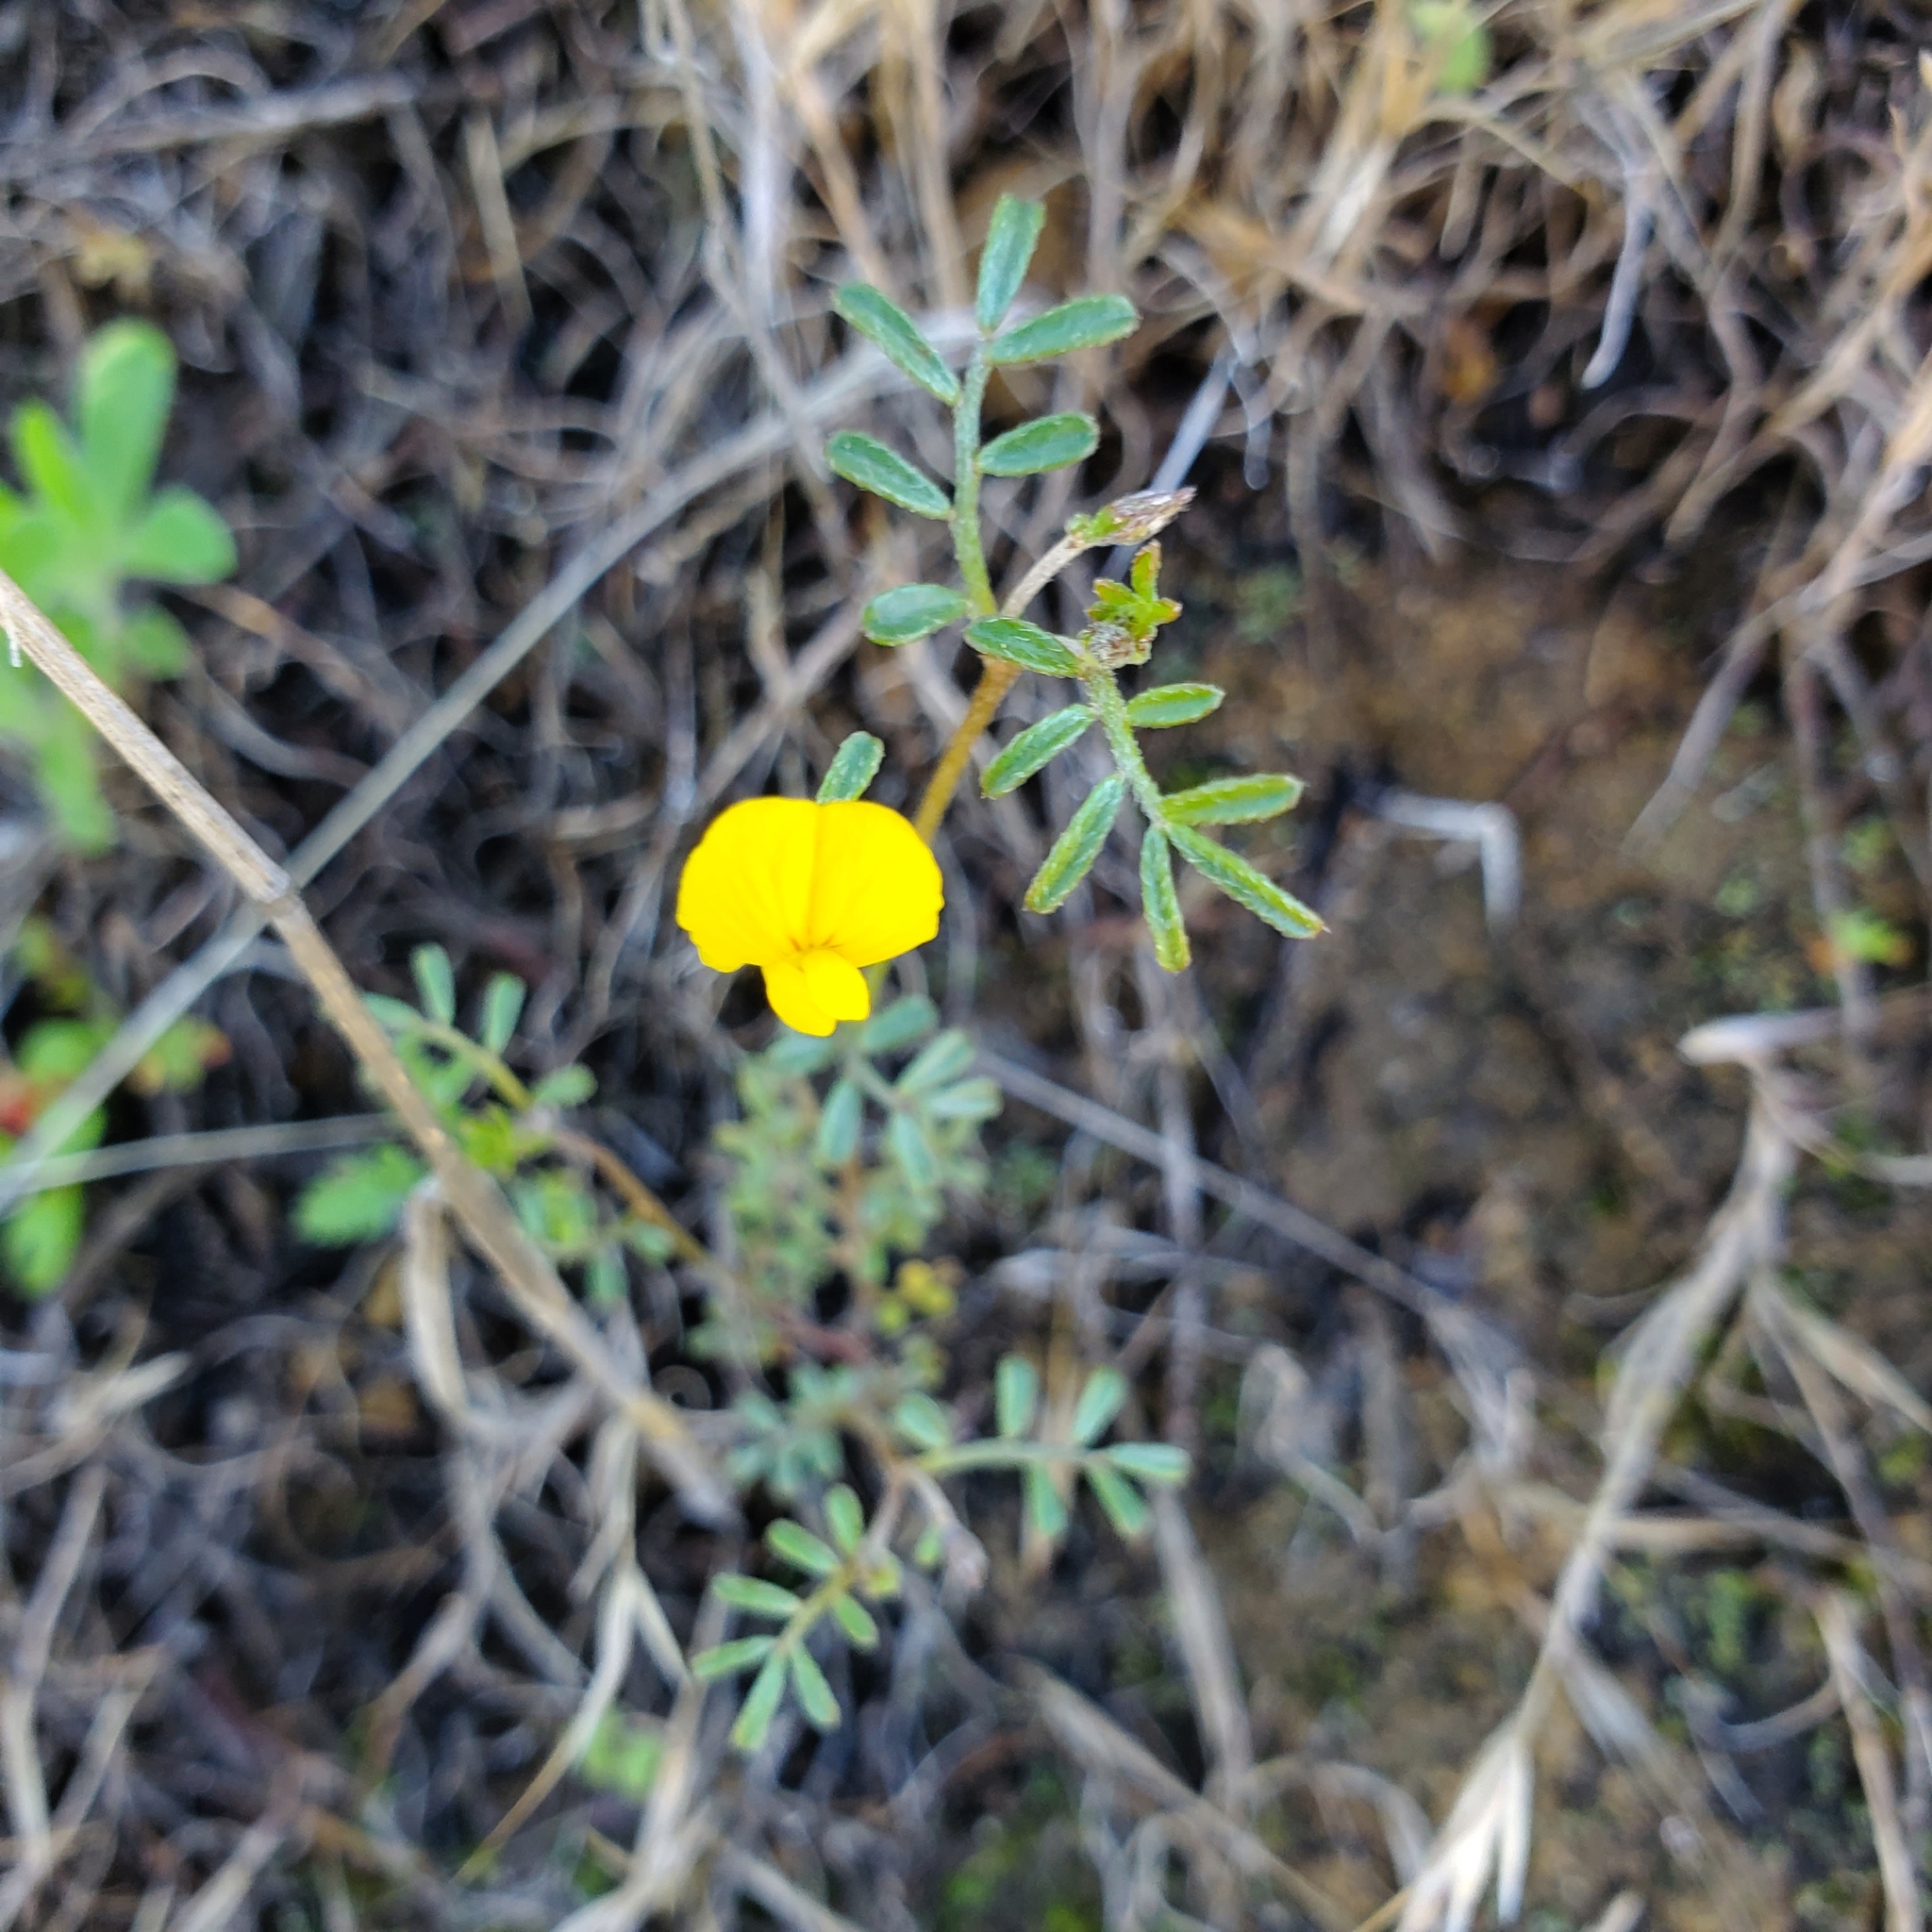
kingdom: Plantae
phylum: Tracheophyta
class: Magnoliopsida
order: Fabales
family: Fabaceae
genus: Acmispon
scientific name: Acmispon strigosus
